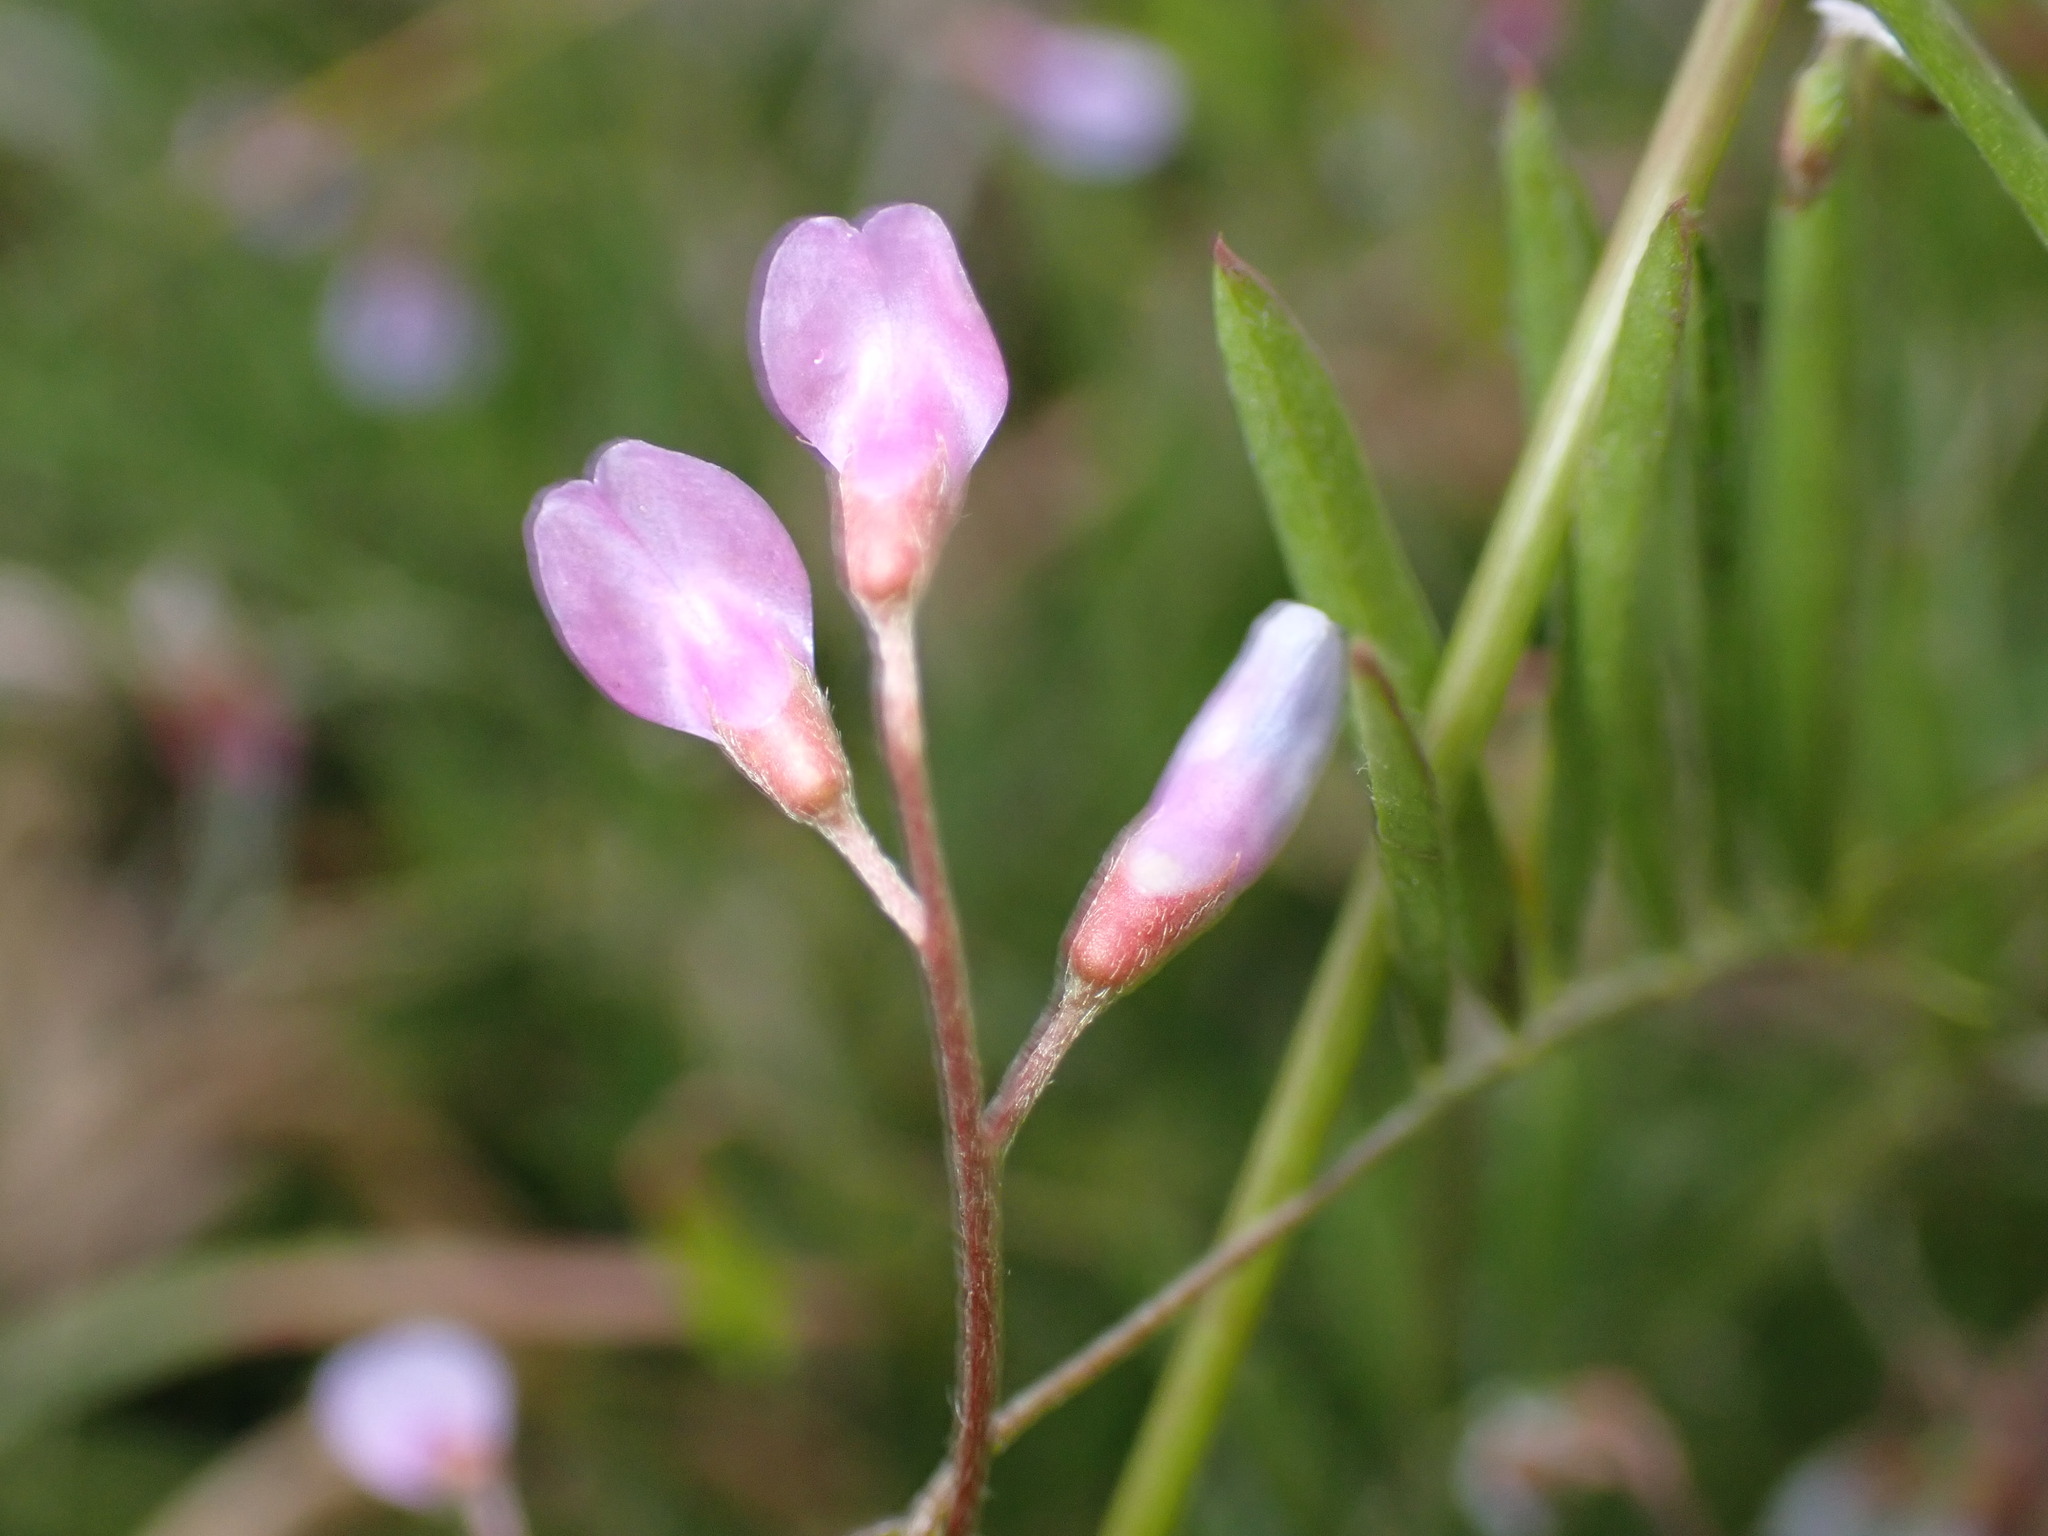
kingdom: Plantae
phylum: Tracheophyta
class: Magnoliopsida
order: Fabales
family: Fabaceae
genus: Vicia
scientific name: Vicia tetrasperma
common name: Smooth tare
